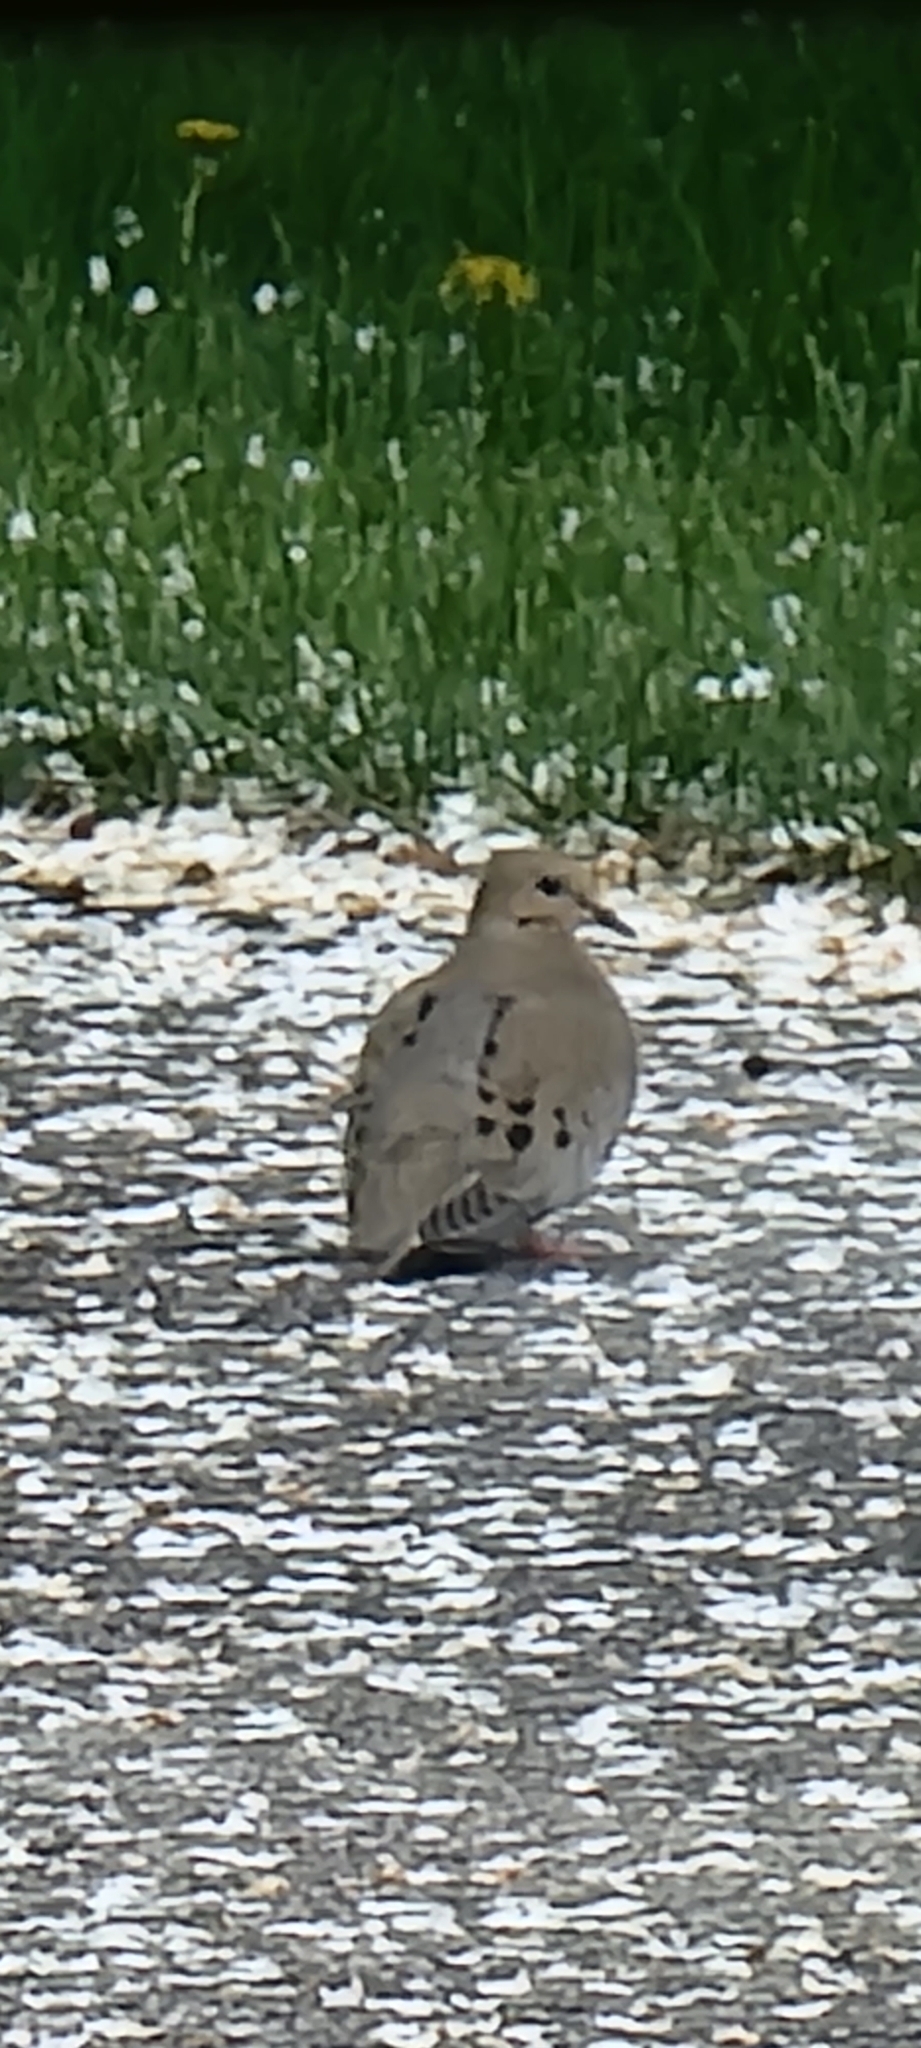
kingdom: Animalia
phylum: Chordata
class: Aves
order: Columbiformes
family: Columbidae
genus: Zenaida
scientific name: Zenaida macroura
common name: Mourning dove
